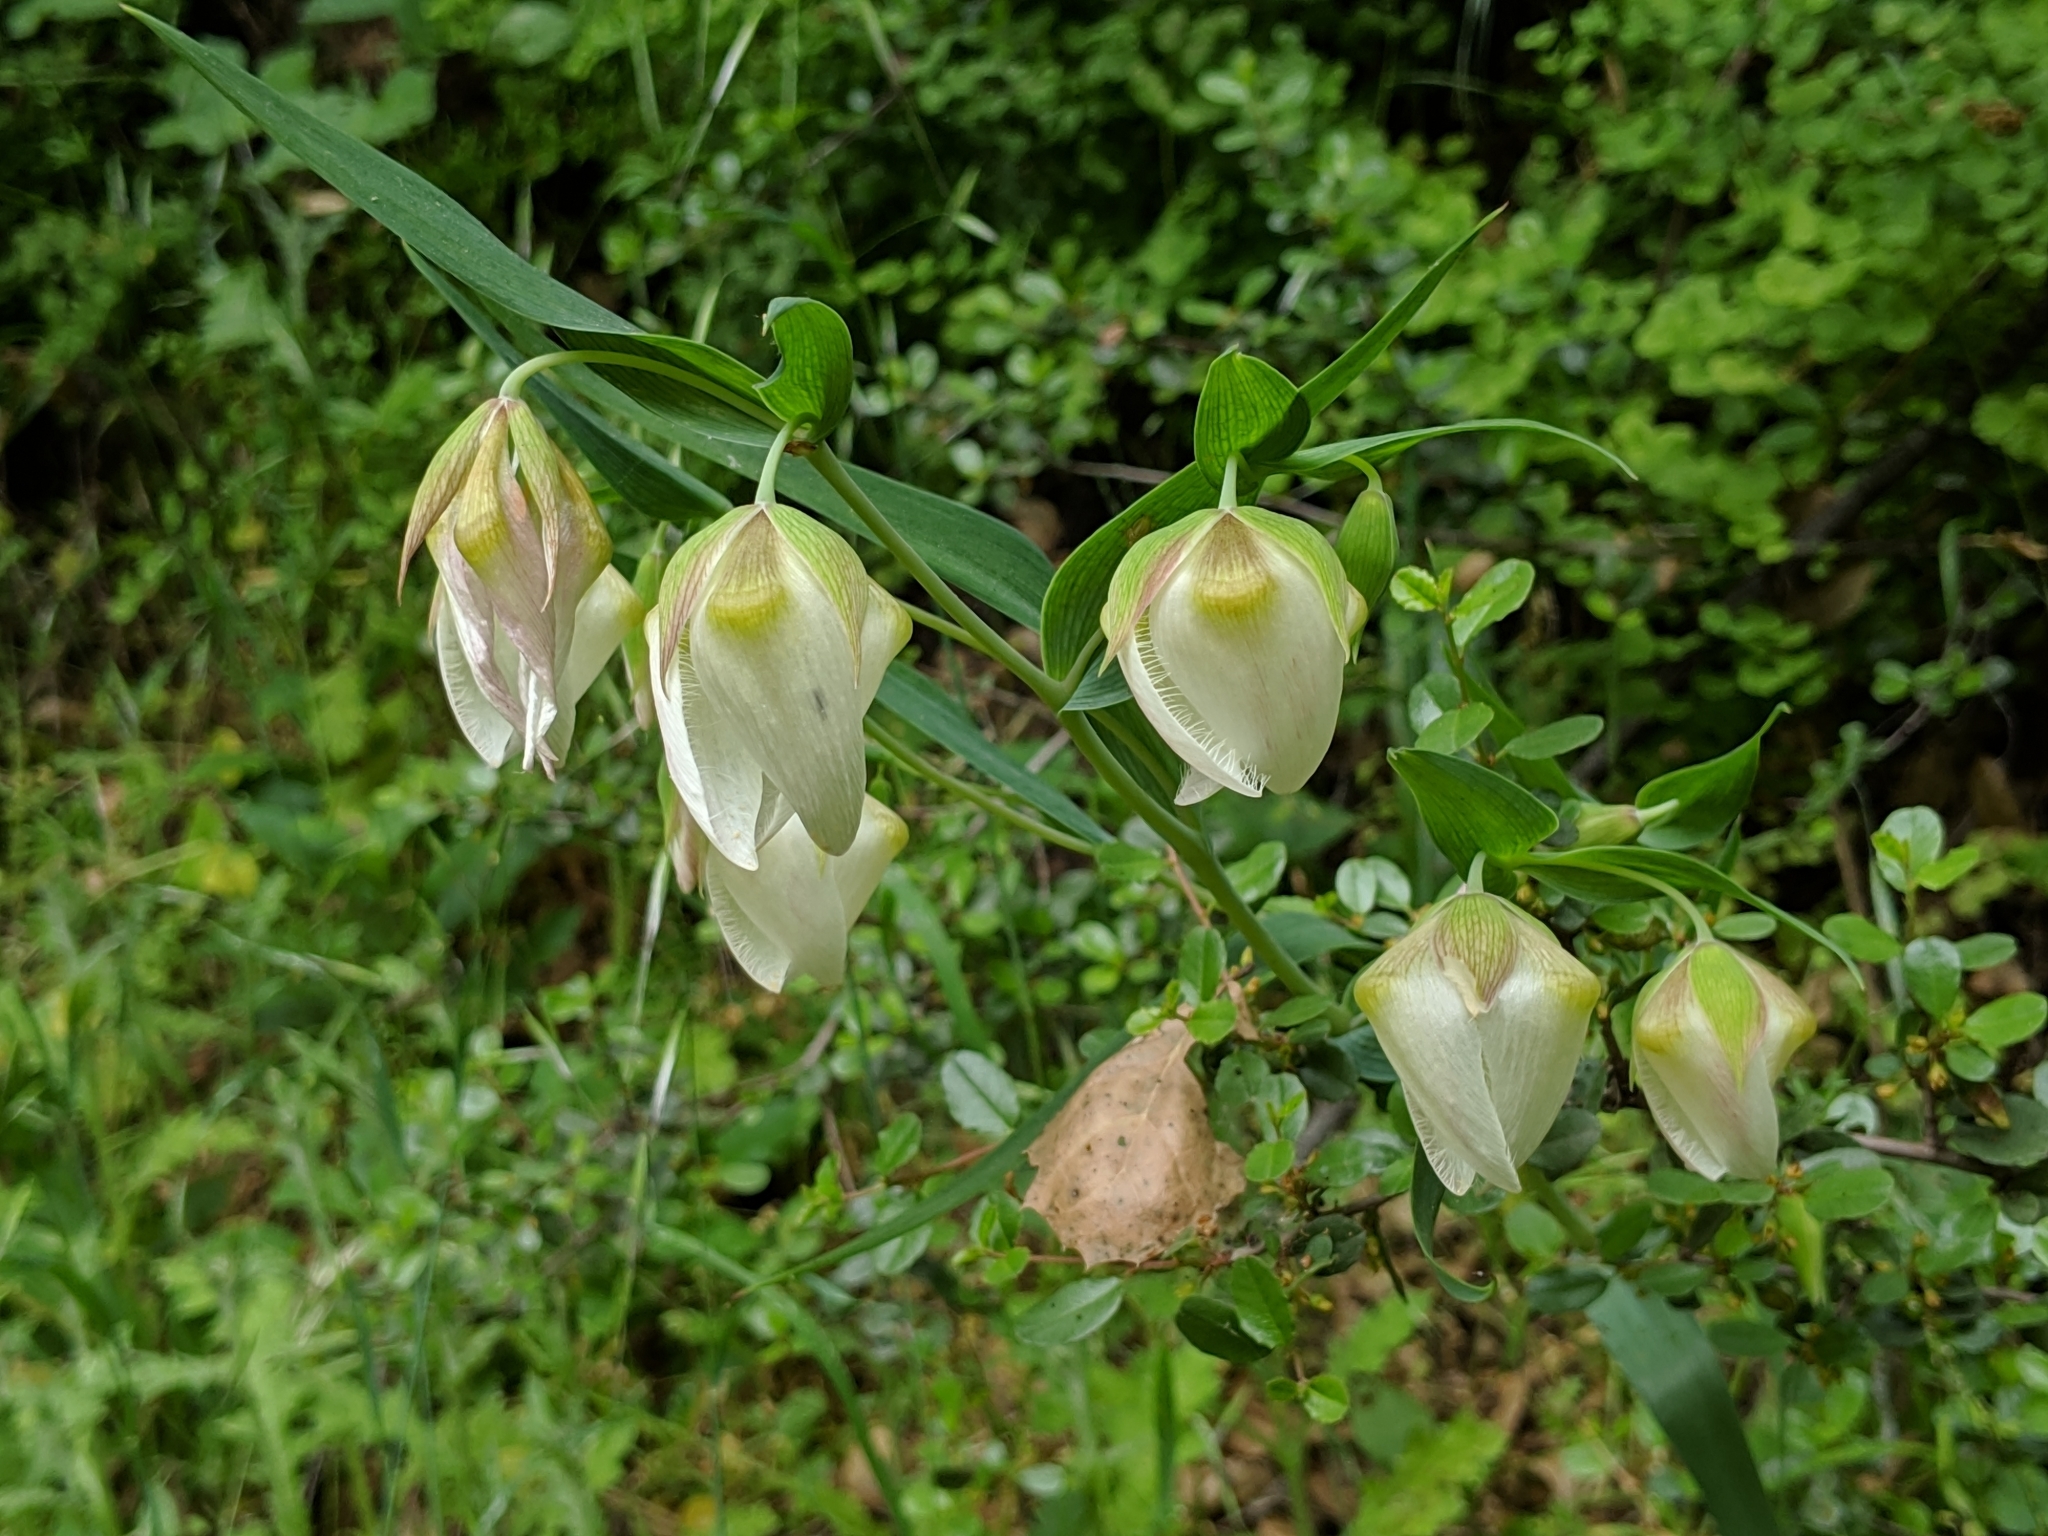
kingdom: Plantae
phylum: Tracheophyta
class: Liliopsida
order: Liliales
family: Liliaceae
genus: Calochortus
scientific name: Calochortus albus
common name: Fairy-lantern
